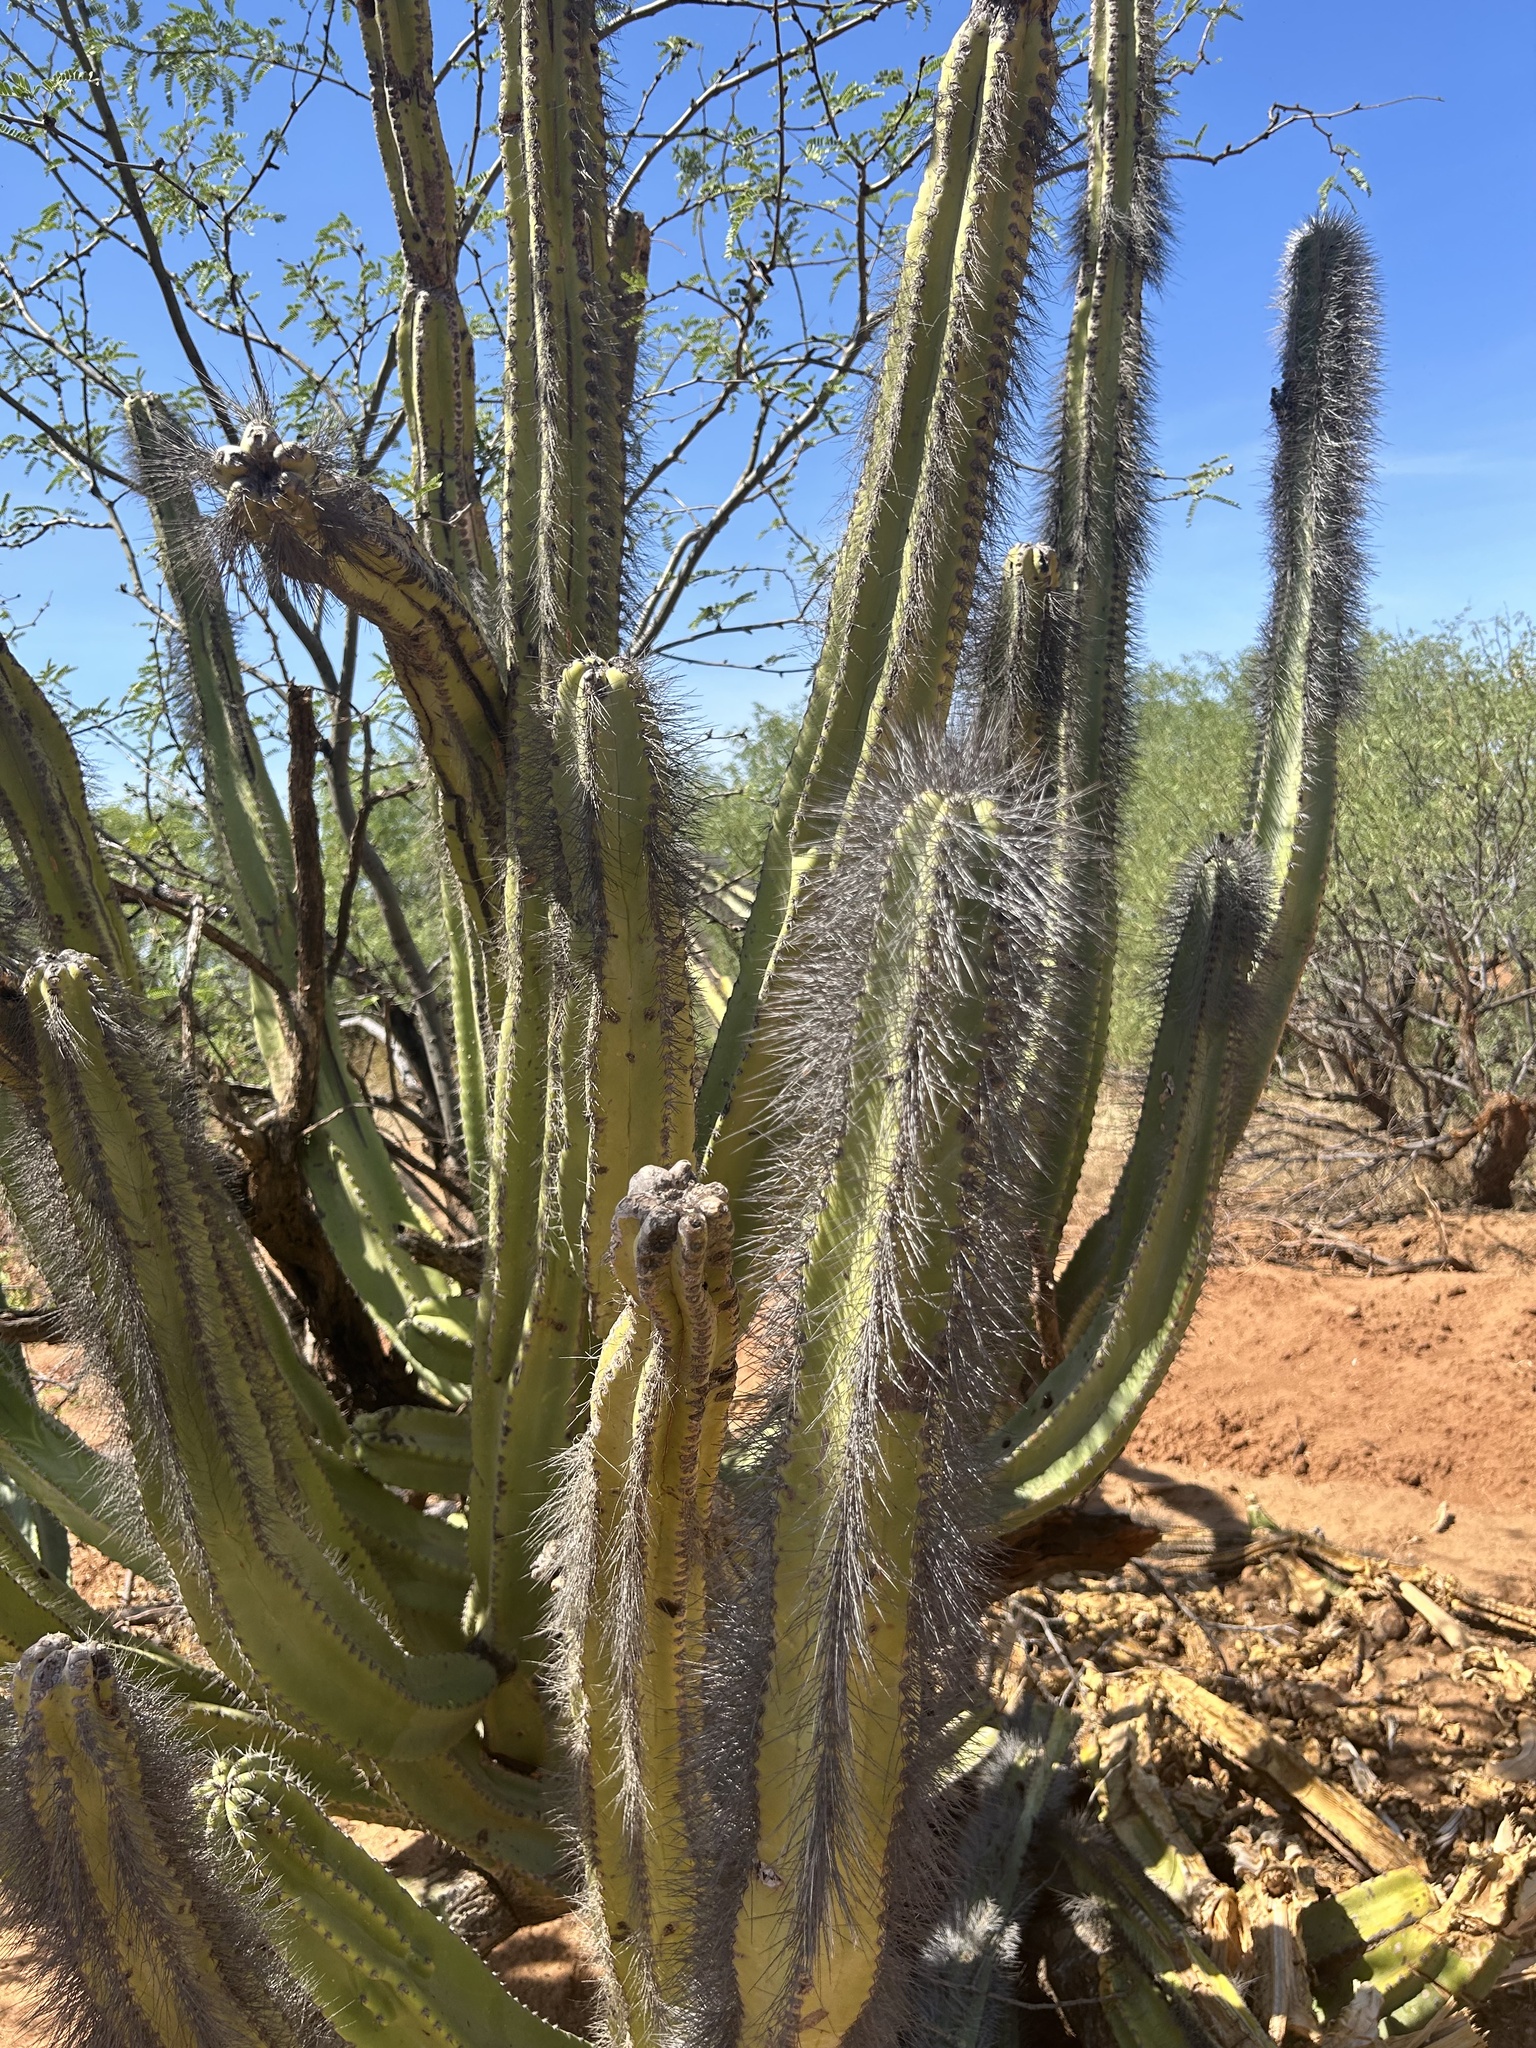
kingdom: Plantae
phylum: Tracheophyta
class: Magnoliopsida
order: Caryophyllales
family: Cactaceae
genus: Pachycereus
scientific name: Pachycereus schottii
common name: Senita cactus
